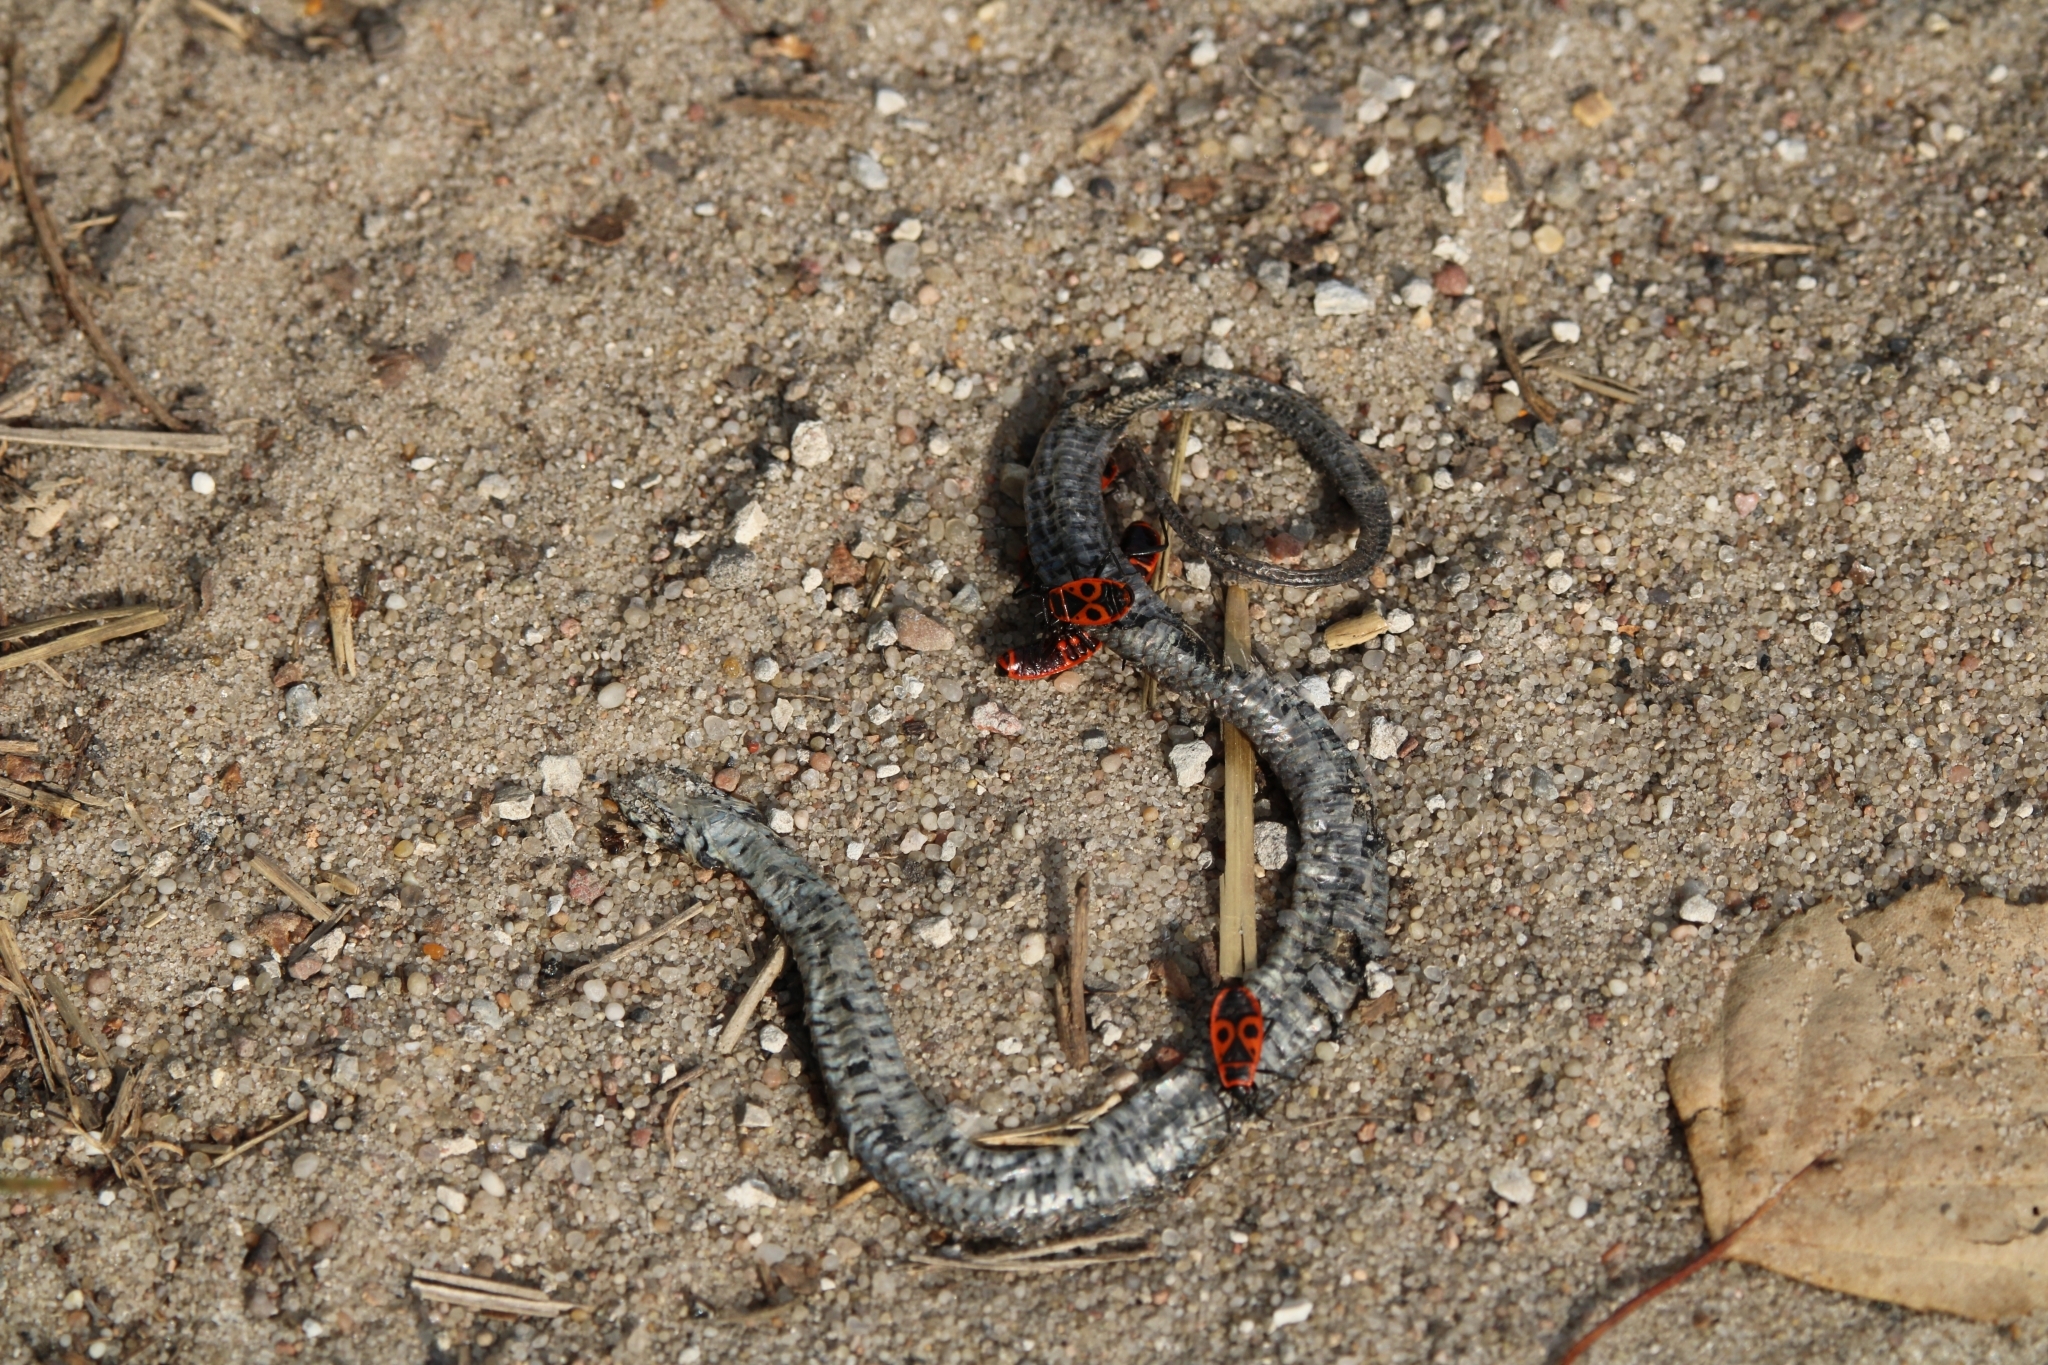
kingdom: Animalia
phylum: Chordata
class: Squamata
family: Colubridae
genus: Natrix
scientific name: Natrix natrix
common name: Grass snake
